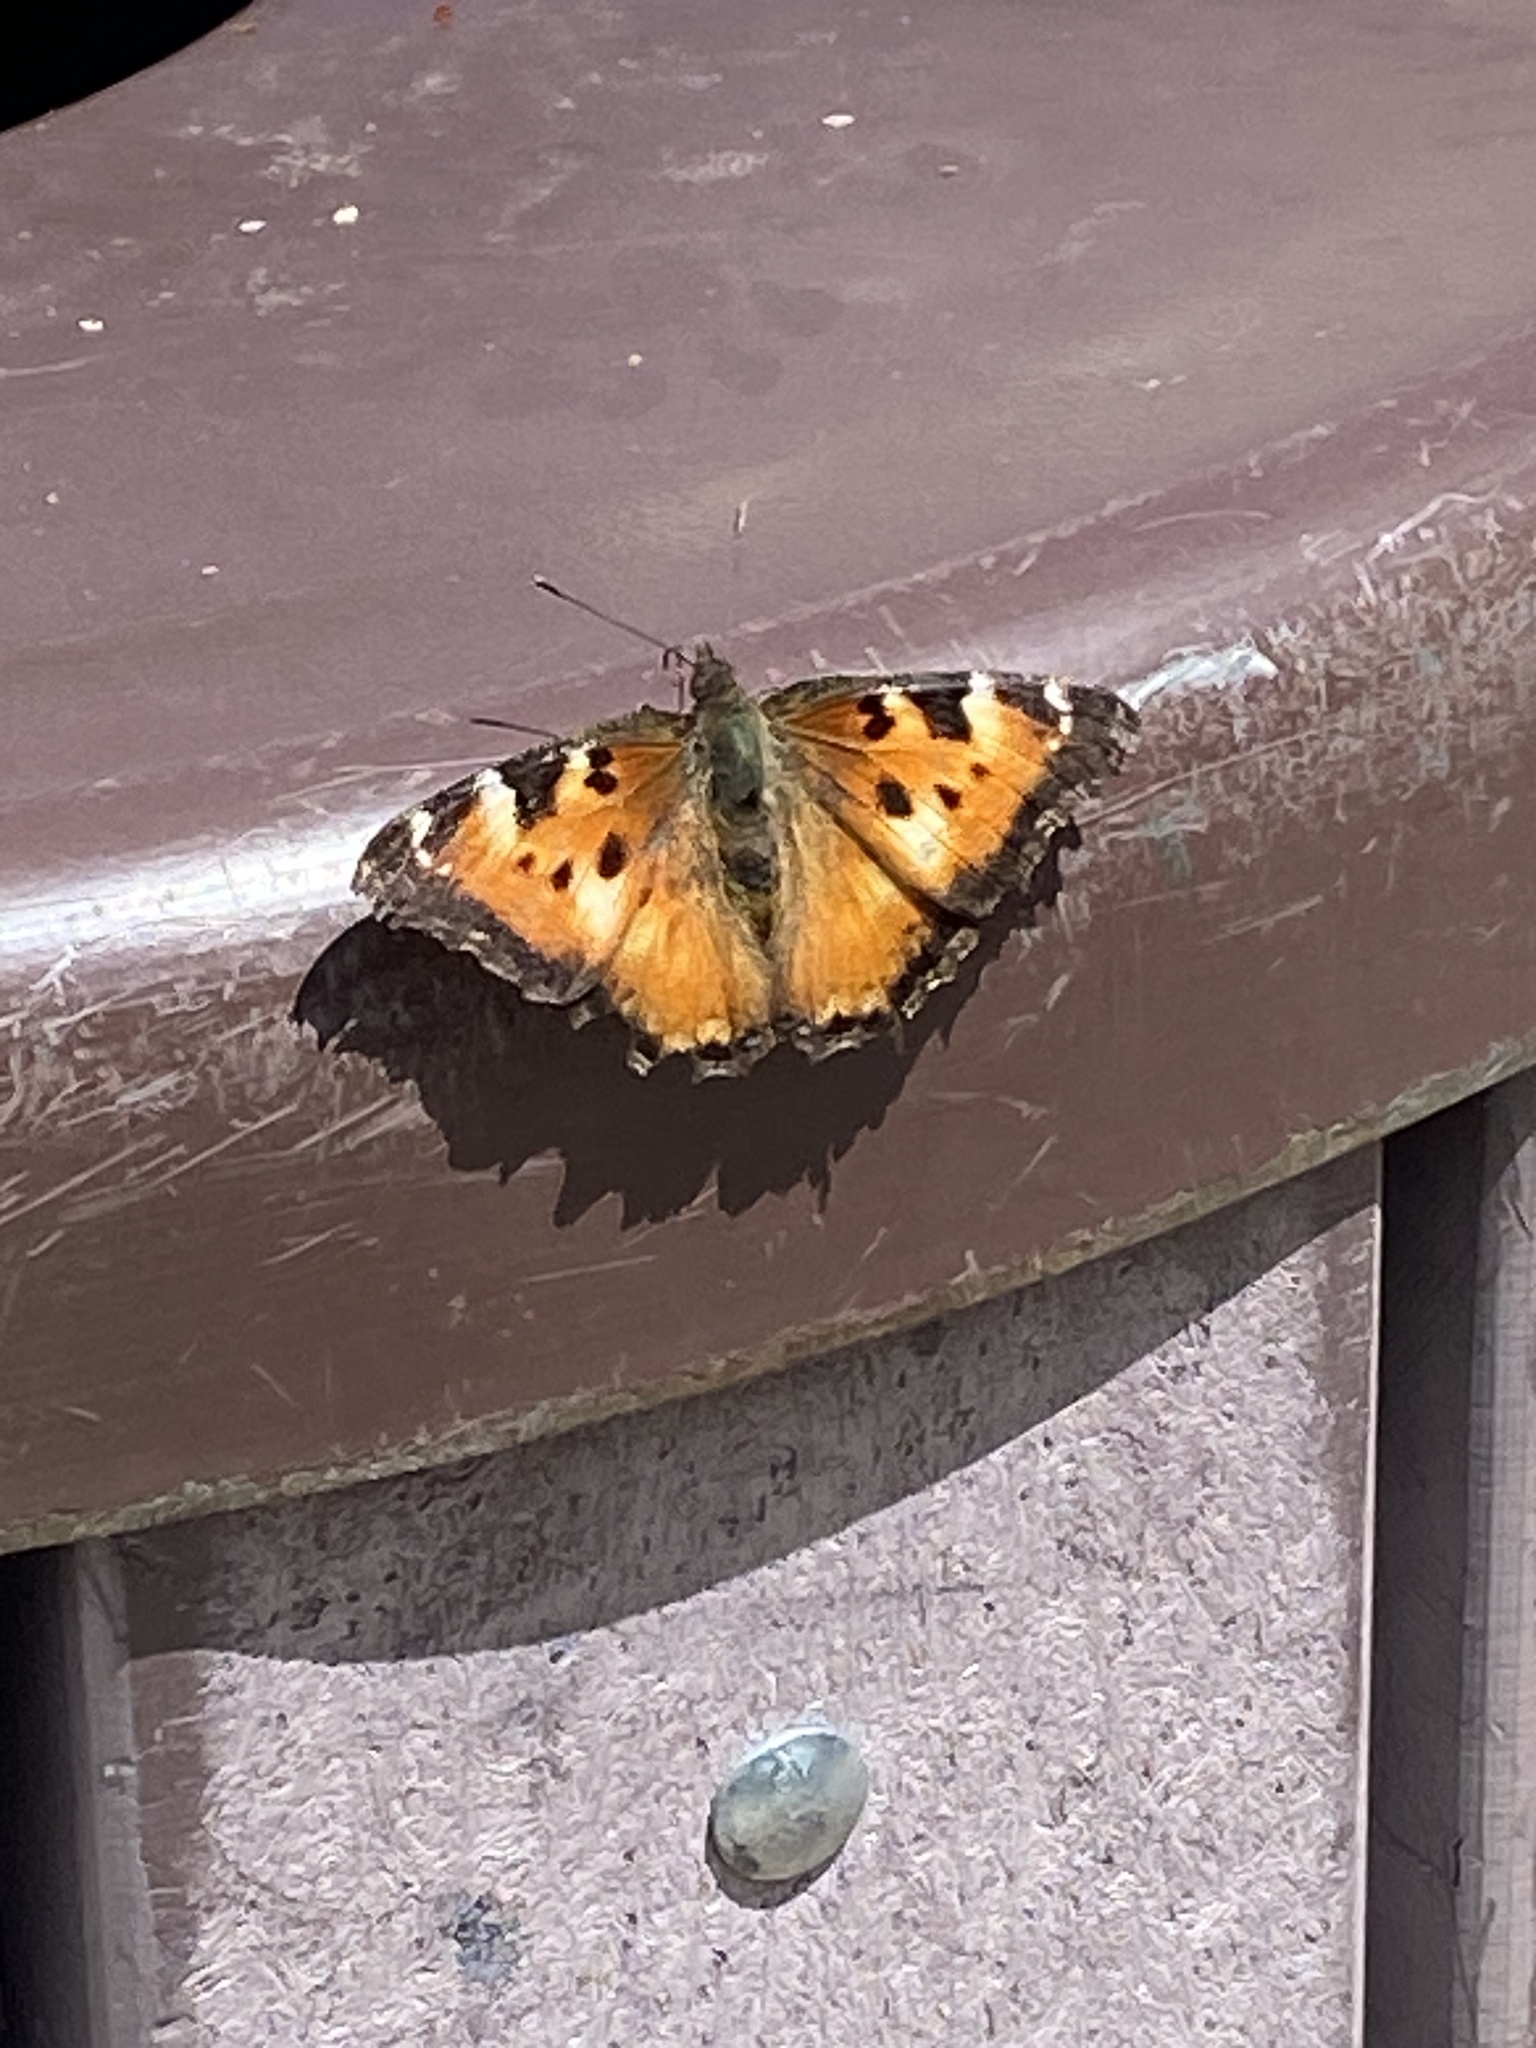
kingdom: Animalia
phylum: Arthropoda
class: Insecta
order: Lepidoptera
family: Nymphalidae
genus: Nymphalis
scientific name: Nymphalis californica
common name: California tortoiseshell
